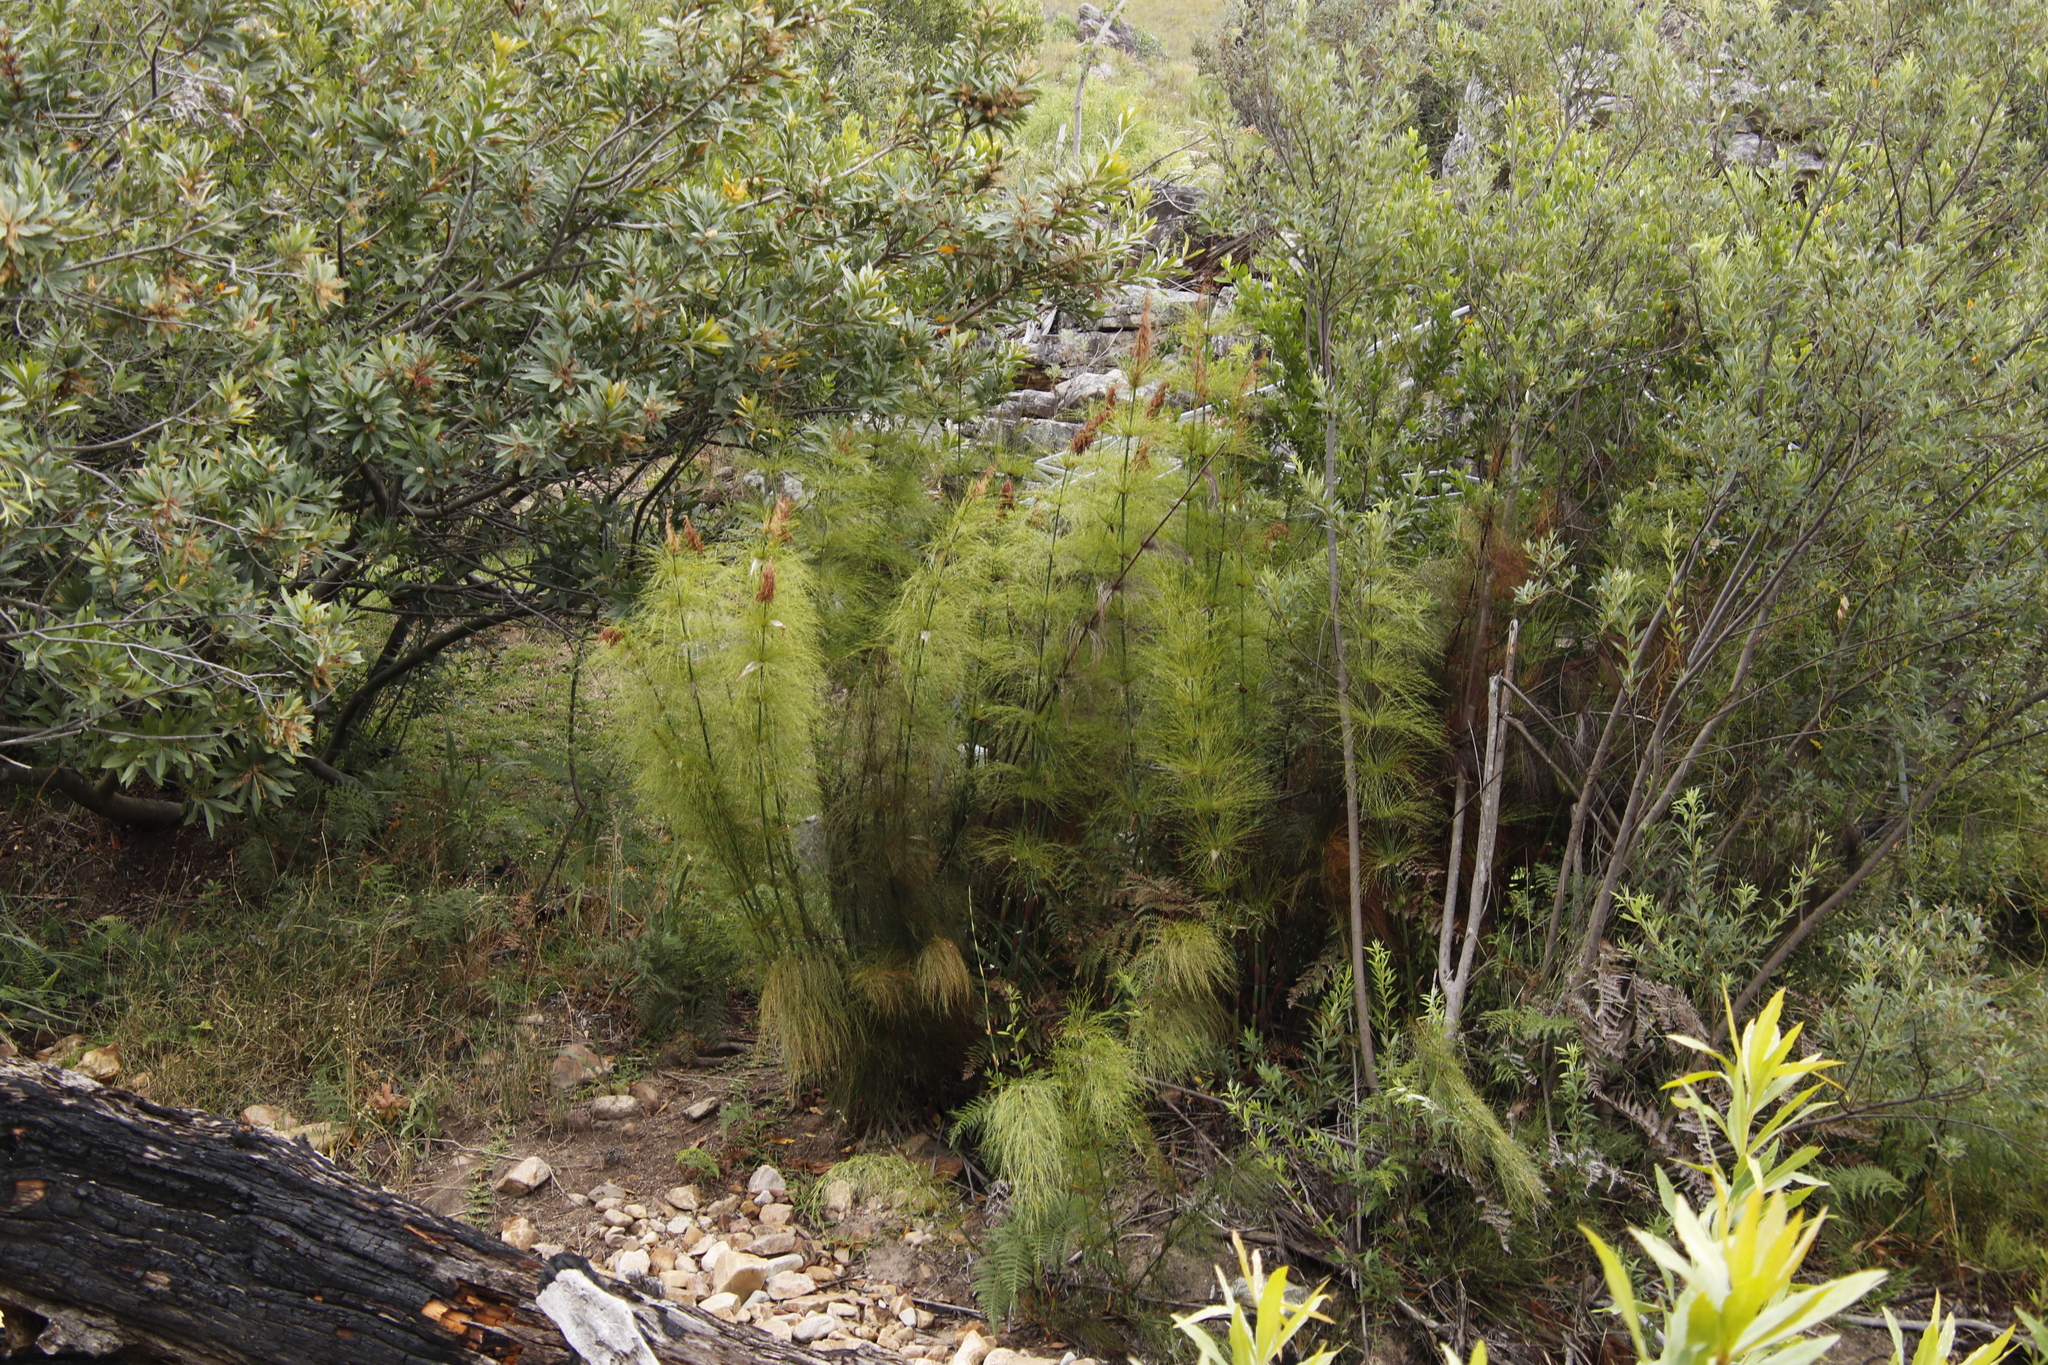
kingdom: Plantae
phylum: Tracheophyta
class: Liliopsida
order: Poales
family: Restionaceae
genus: Elegia
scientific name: Elegia capensis
